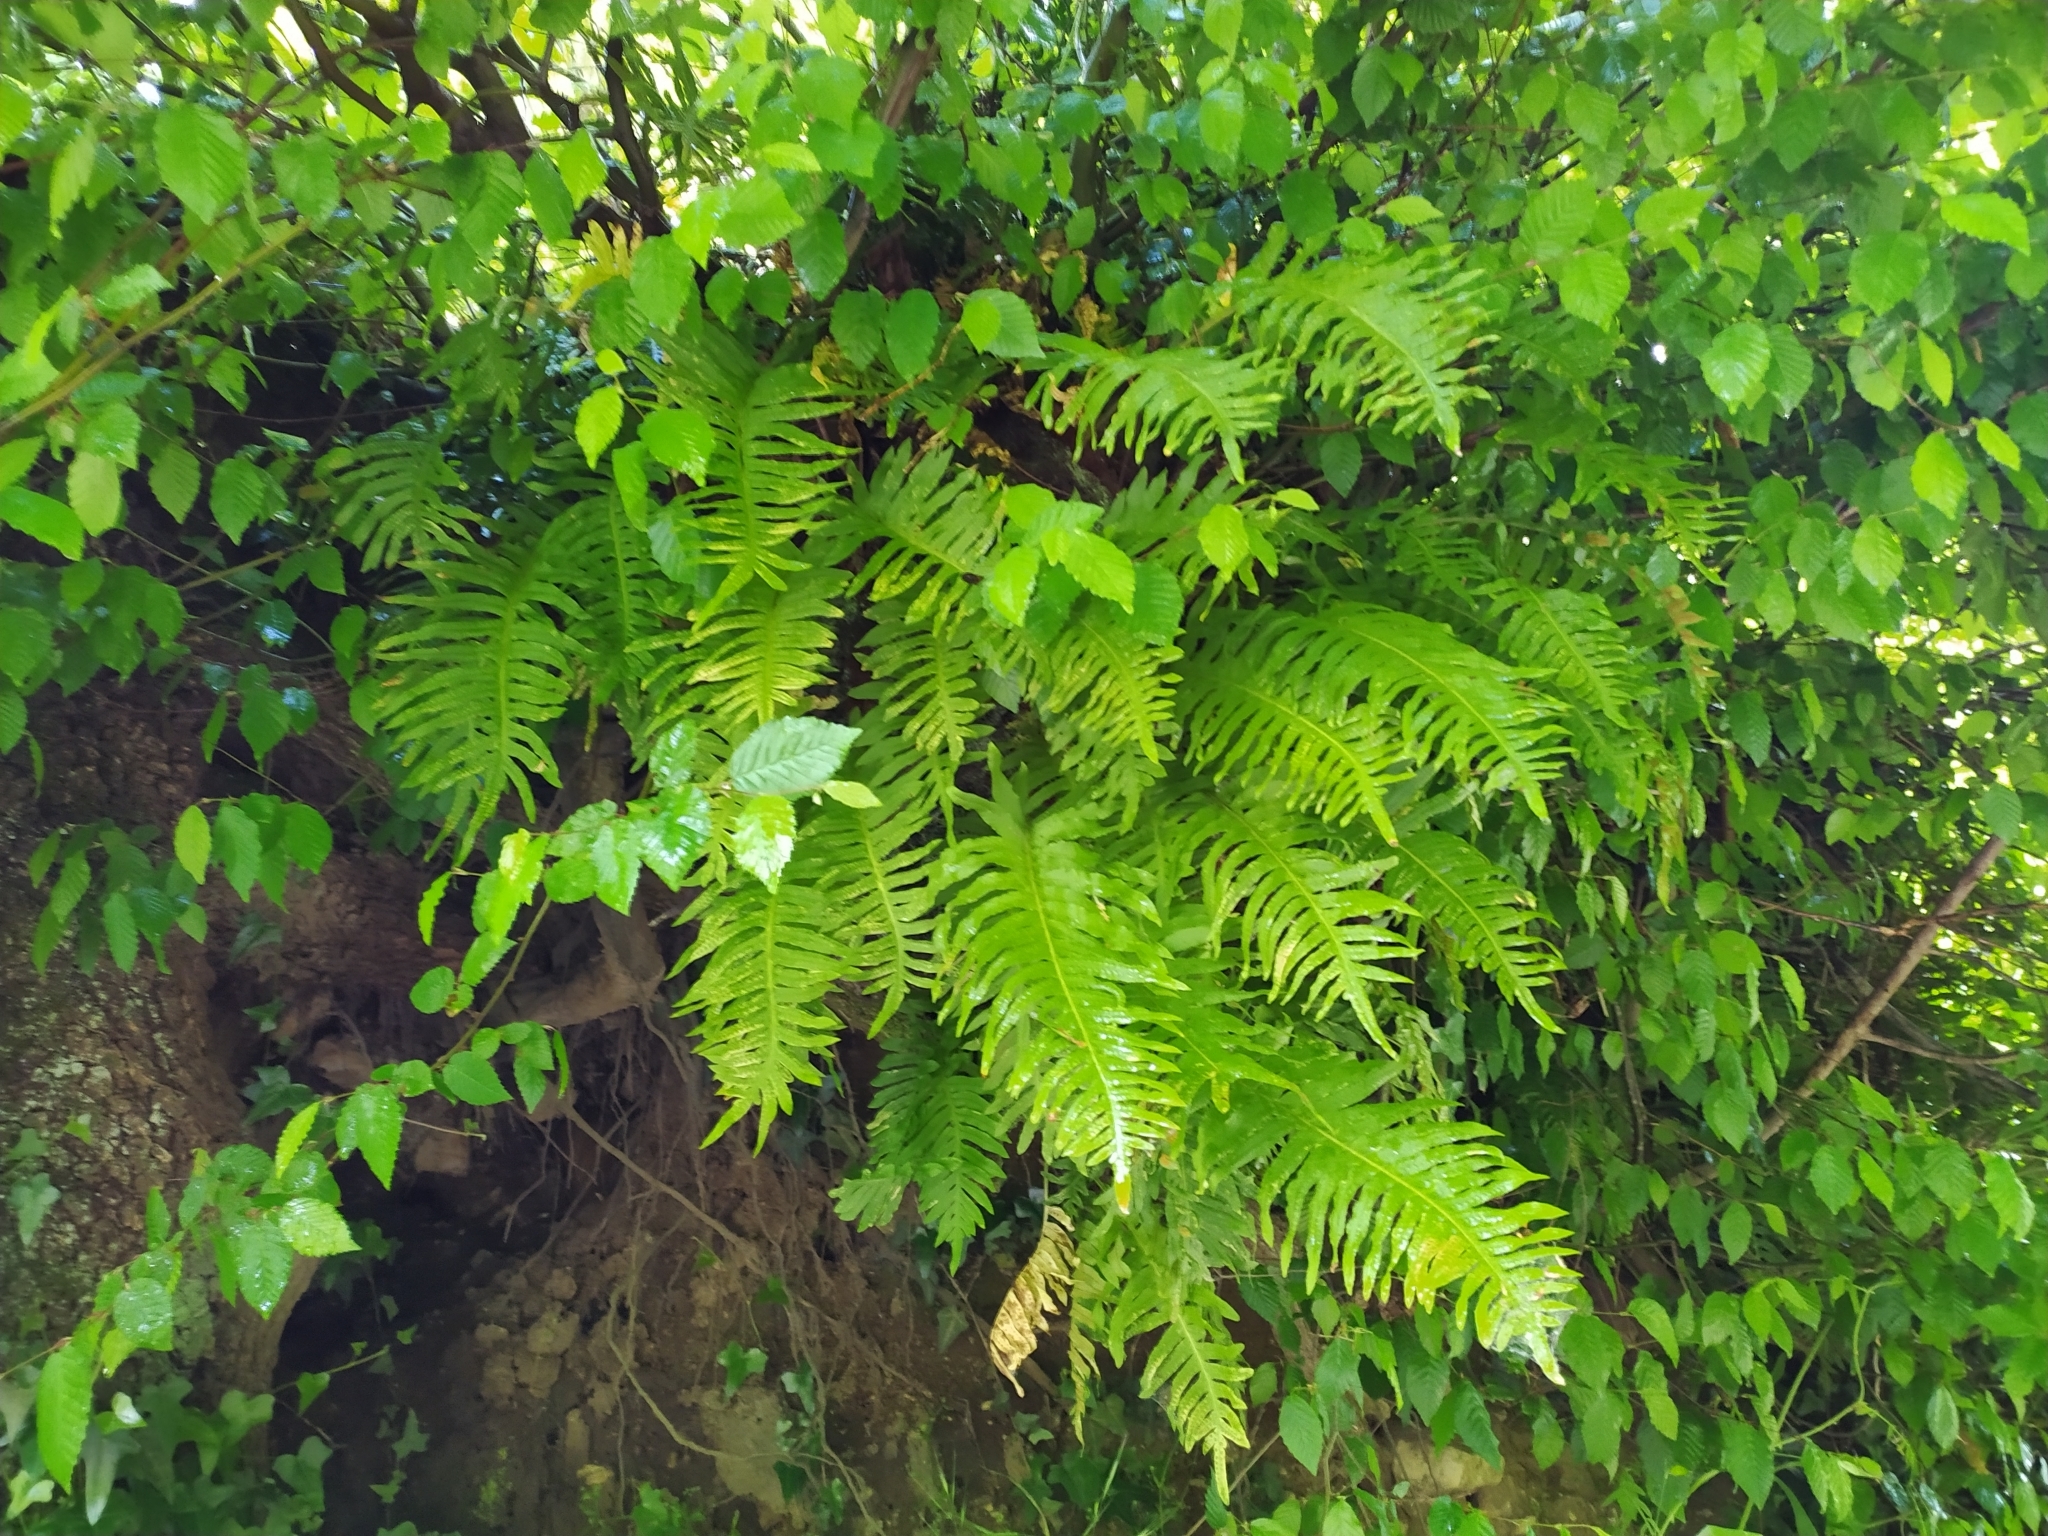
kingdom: Plantae
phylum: Tracheophyta
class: Polypodiopsida
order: Polypodiales
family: Polypodiaceae
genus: Polypodium
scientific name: Polypodium cambricum
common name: Southern polypody
